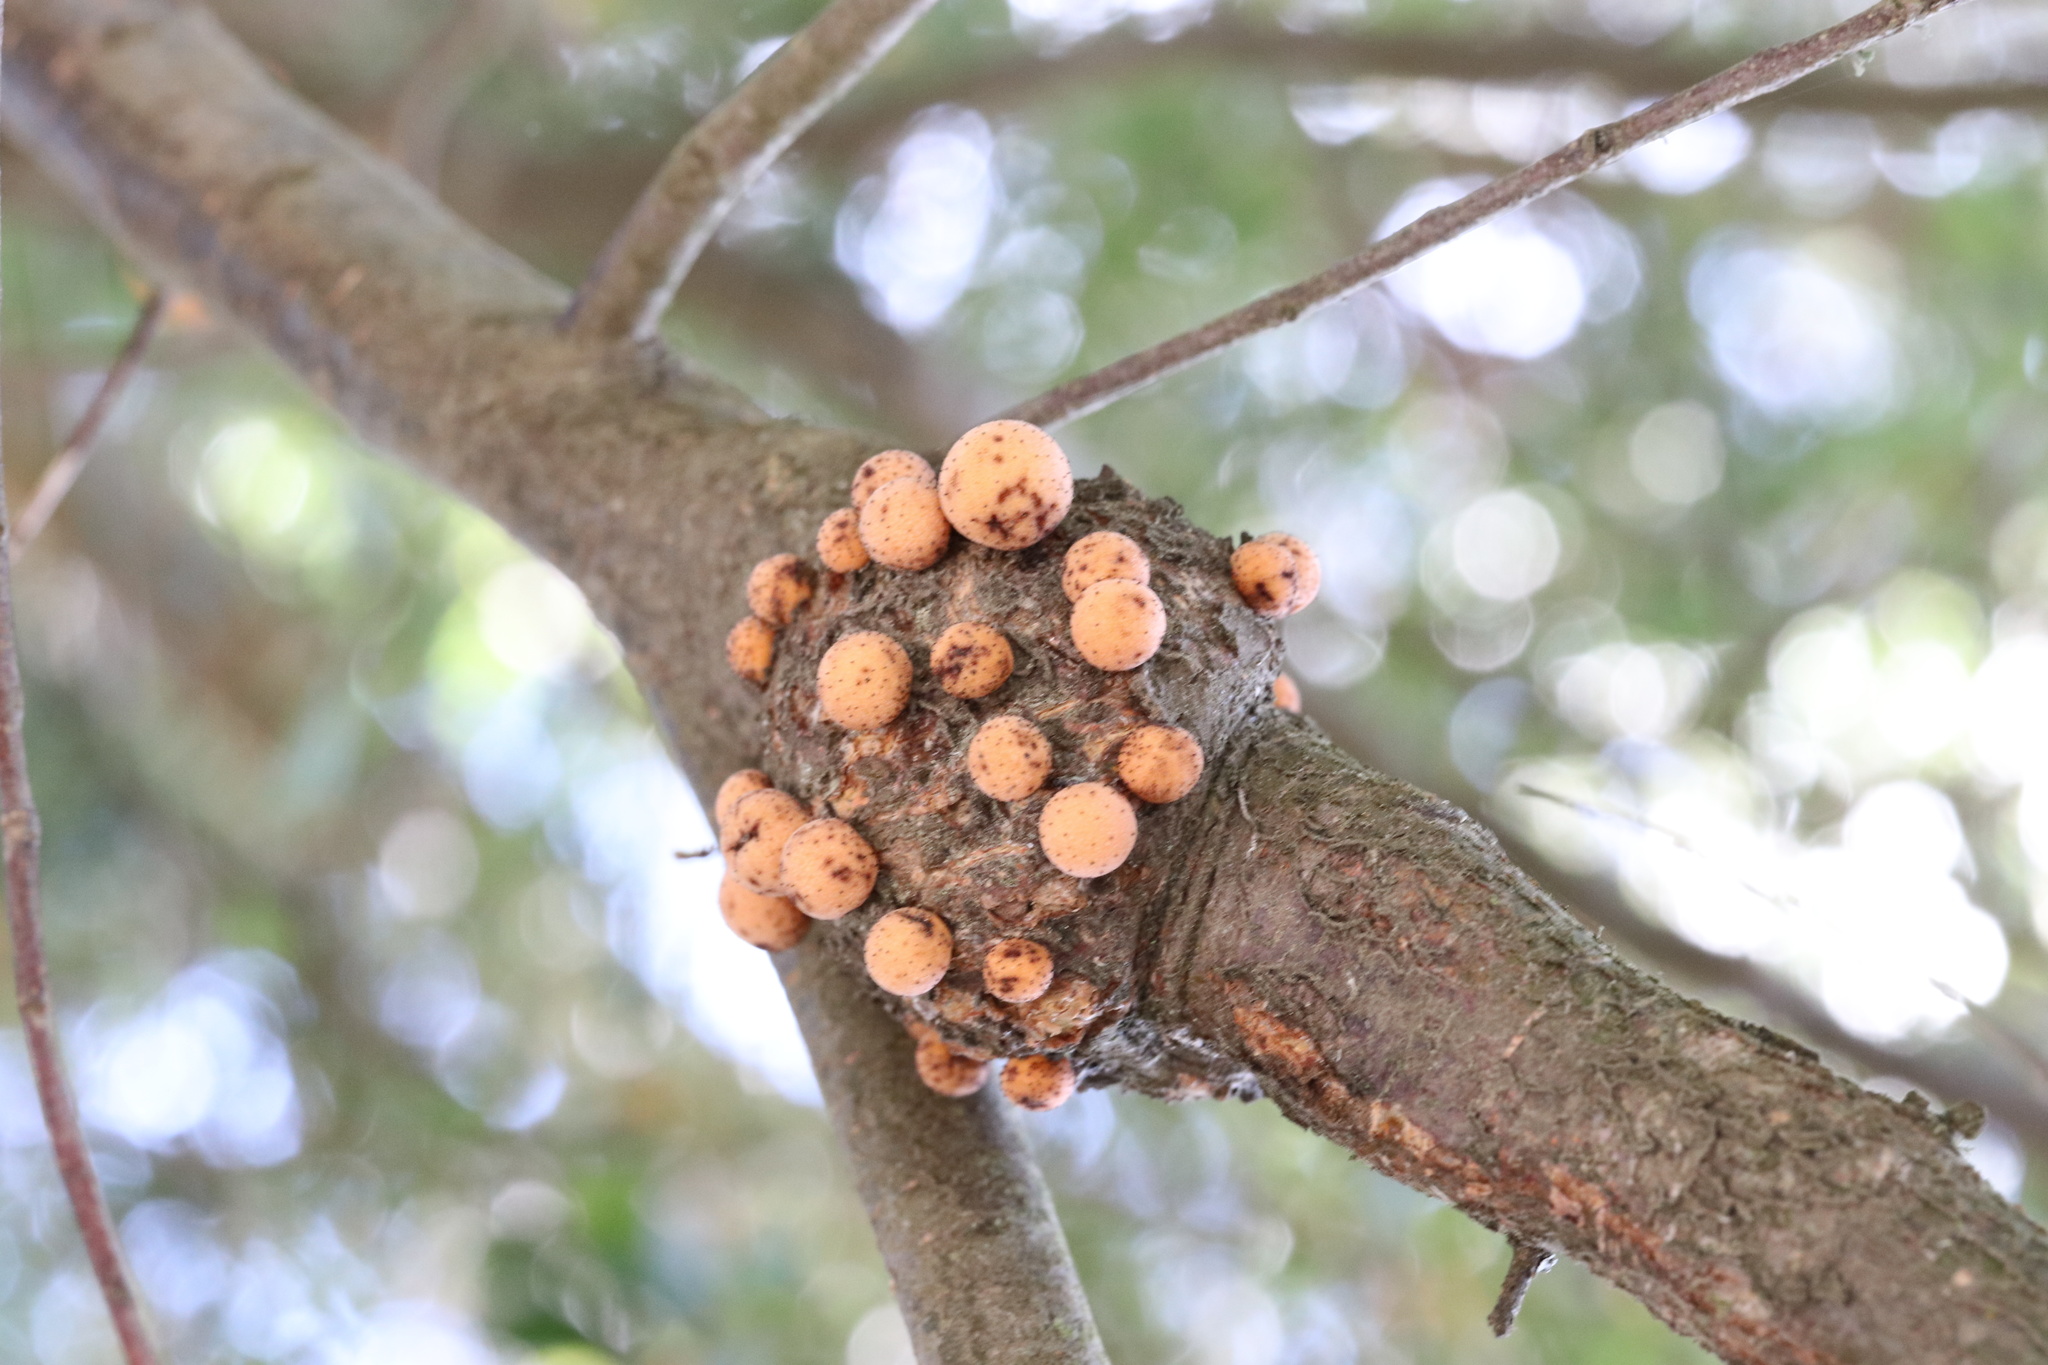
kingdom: Fungi
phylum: Ascomycota
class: Leotiomycetes
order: Cyttariales
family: Cyttariaceae
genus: Cyttaria
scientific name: Cyttaria hariotii
